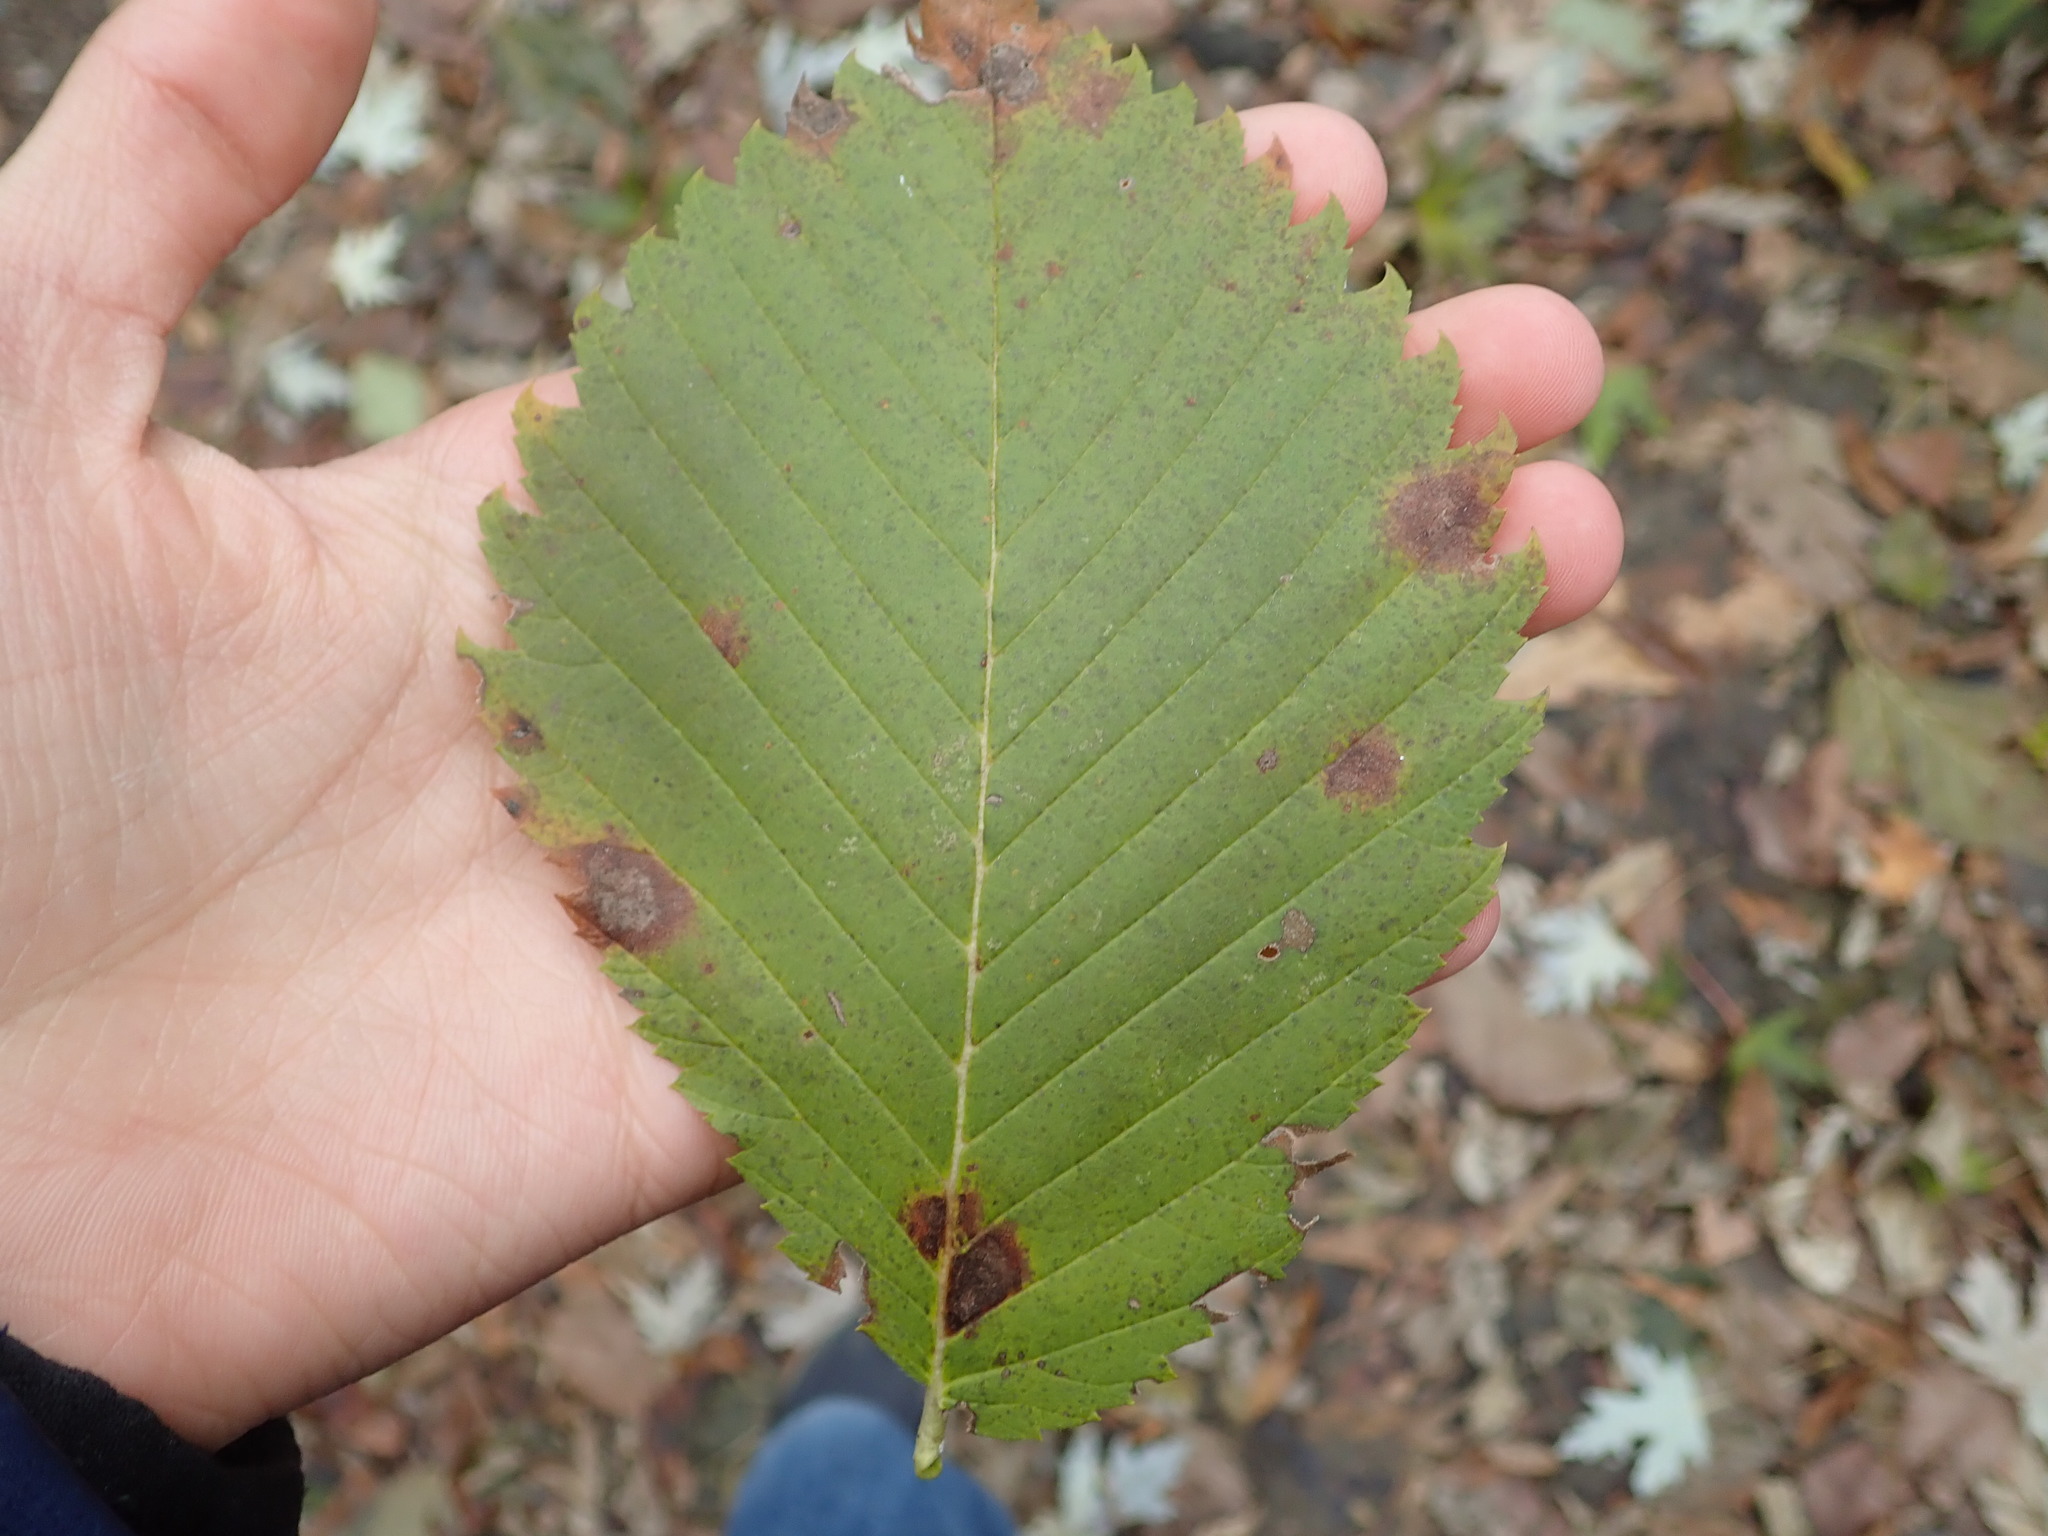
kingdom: Plantae
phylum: Tracheophyta
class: Magnoliopsida
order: Rosales
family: Ulmaceae
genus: Ulmus
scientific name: Ulmus rubra
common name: Slippery elm
